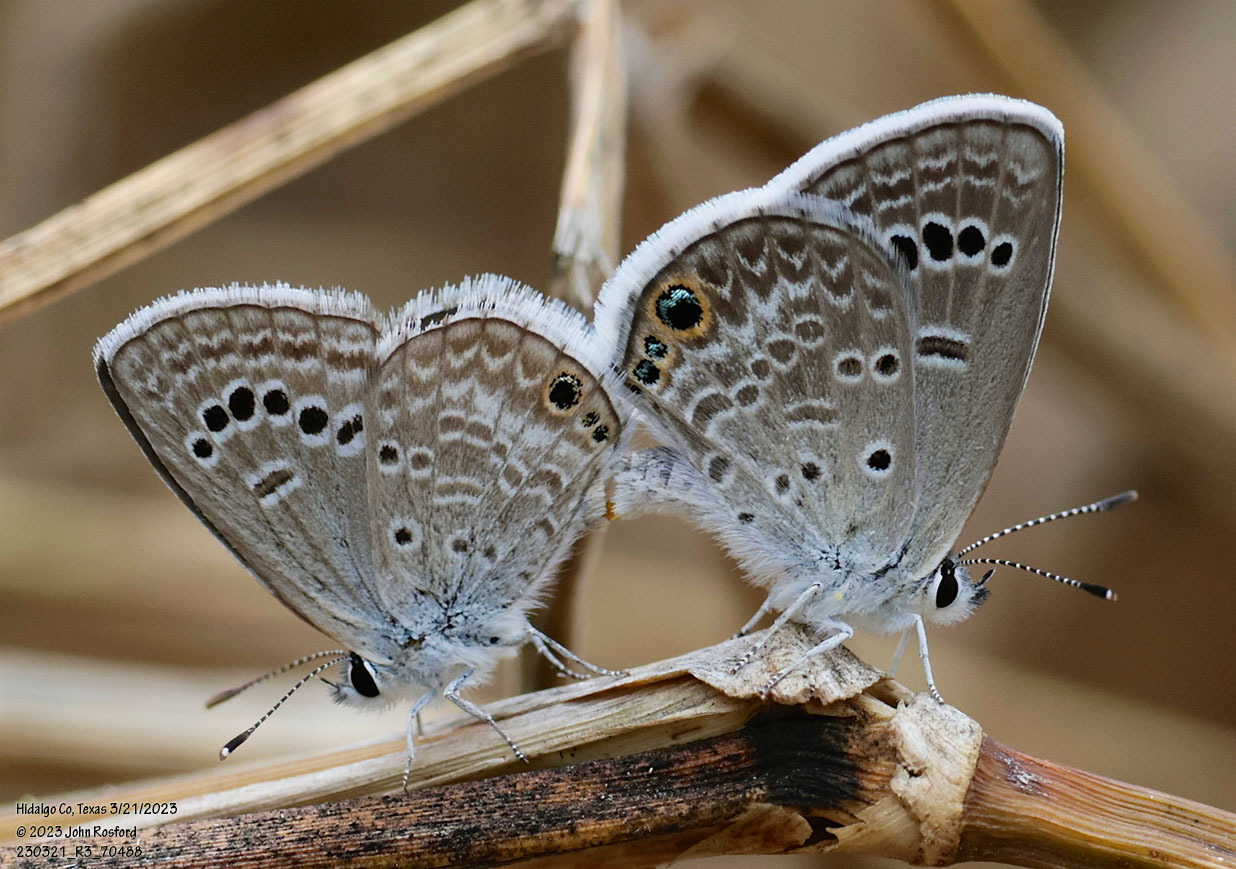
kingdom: Animalia
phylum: Arthropoda
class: Insecta
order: Lepidoptera
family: Lycaenidae
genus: Echinargus
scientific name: Echinargus isola
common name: Reakirt's blue
